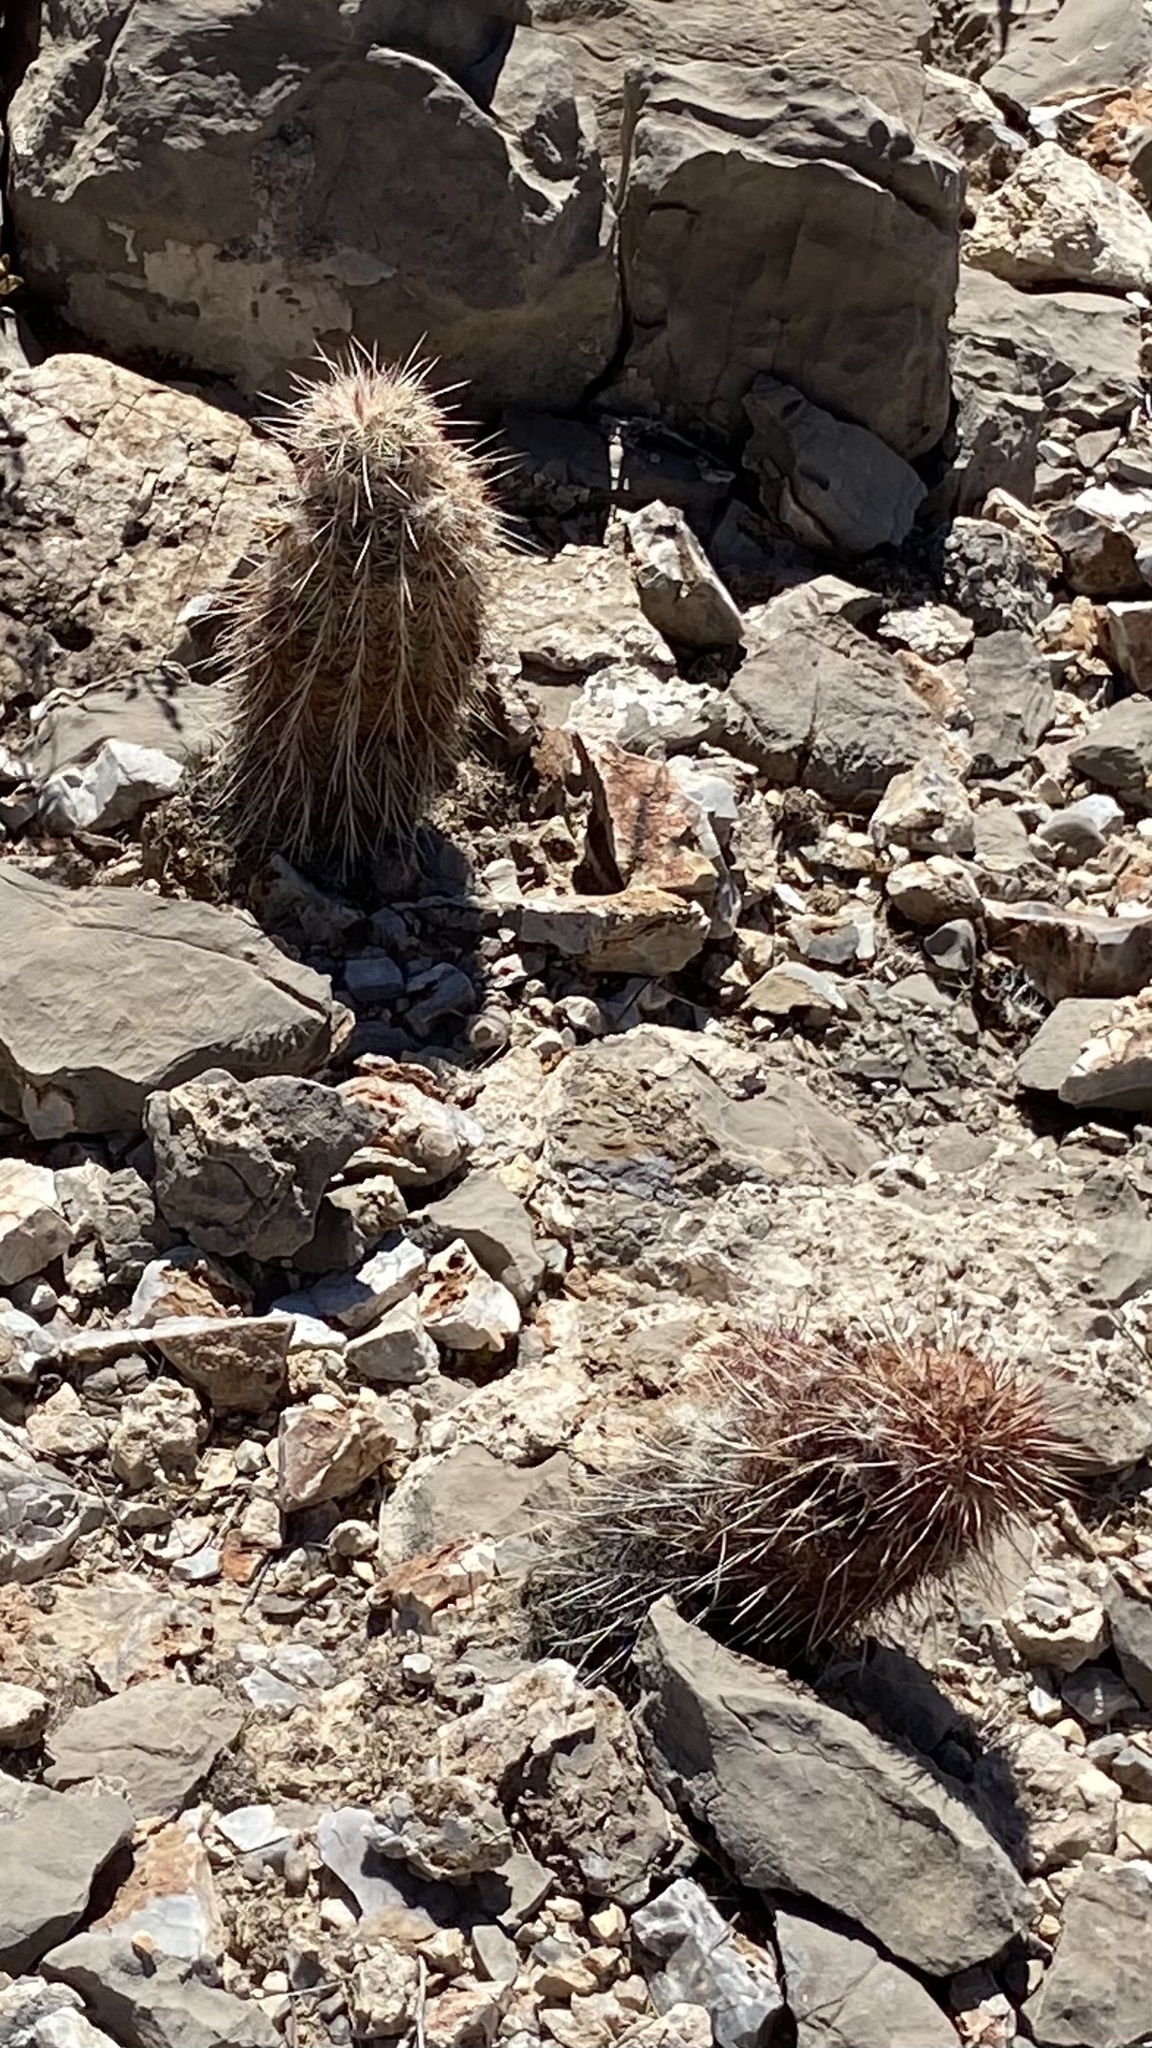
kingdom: Plantae
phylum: Tracheophyta
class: Magnoliopsida
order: Caryophyllales
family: Cactaceae
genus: Echinocereus
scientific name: Echinocereus viridiflorus
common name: Nylon hedgehog cactus
